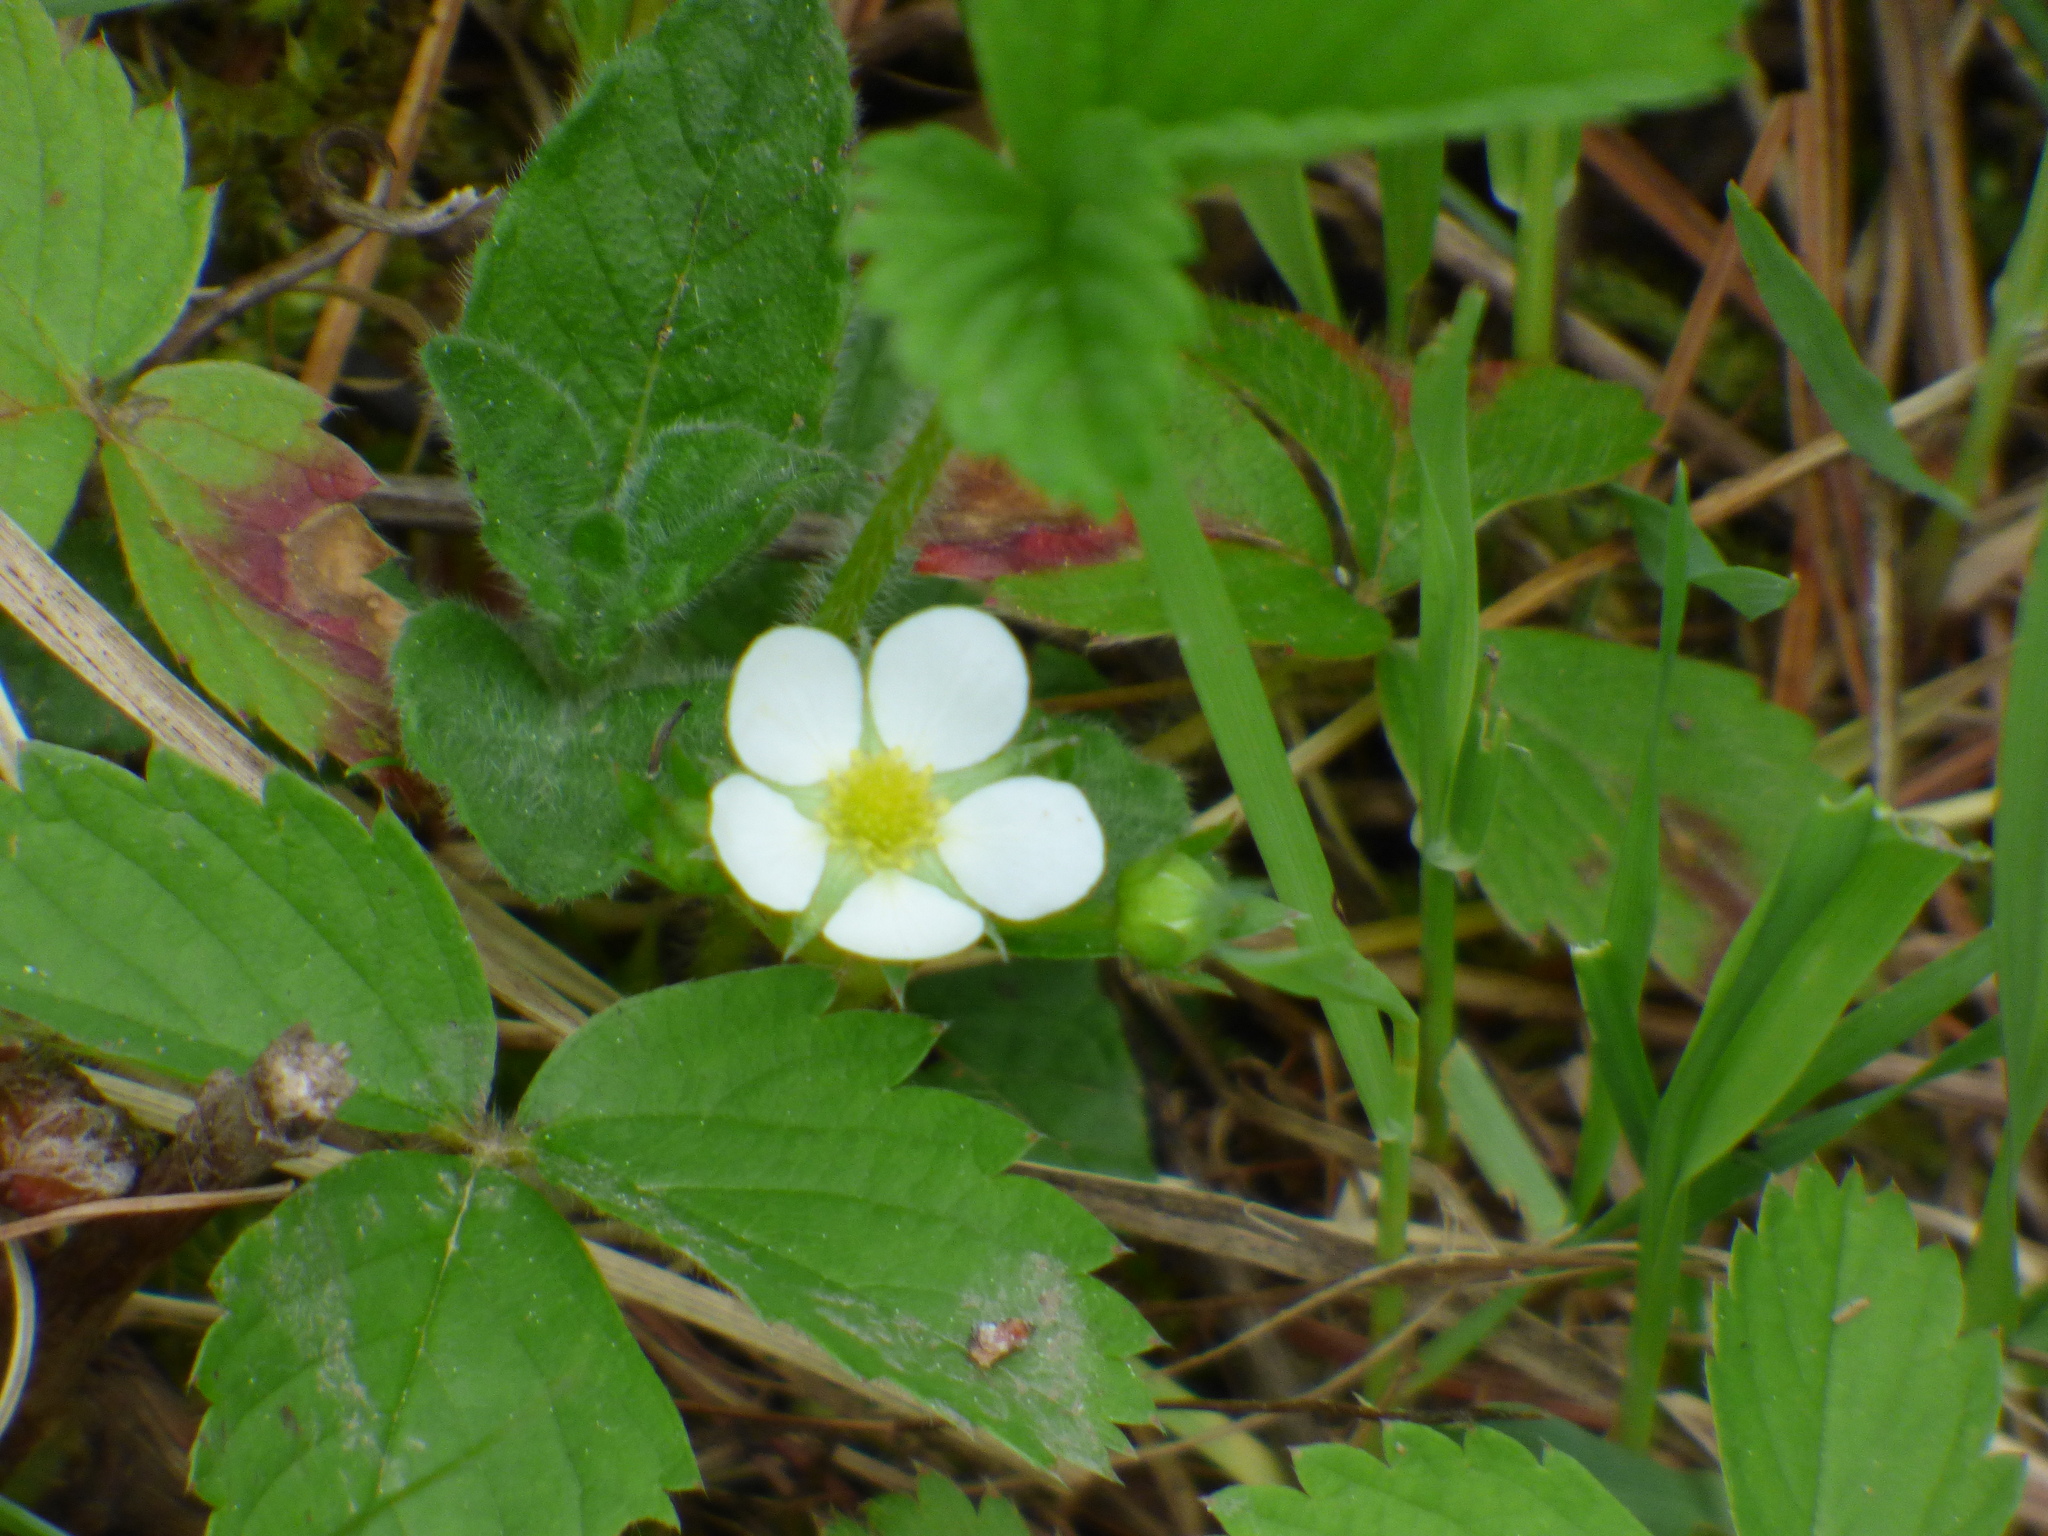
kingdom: Plantae
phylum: Tracheophyta
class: Magnoliopsida
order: Rosales
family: Rosaceae
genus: Fragaria
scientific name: Fragaria virginiana
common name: Thickleaved wild strawberry
